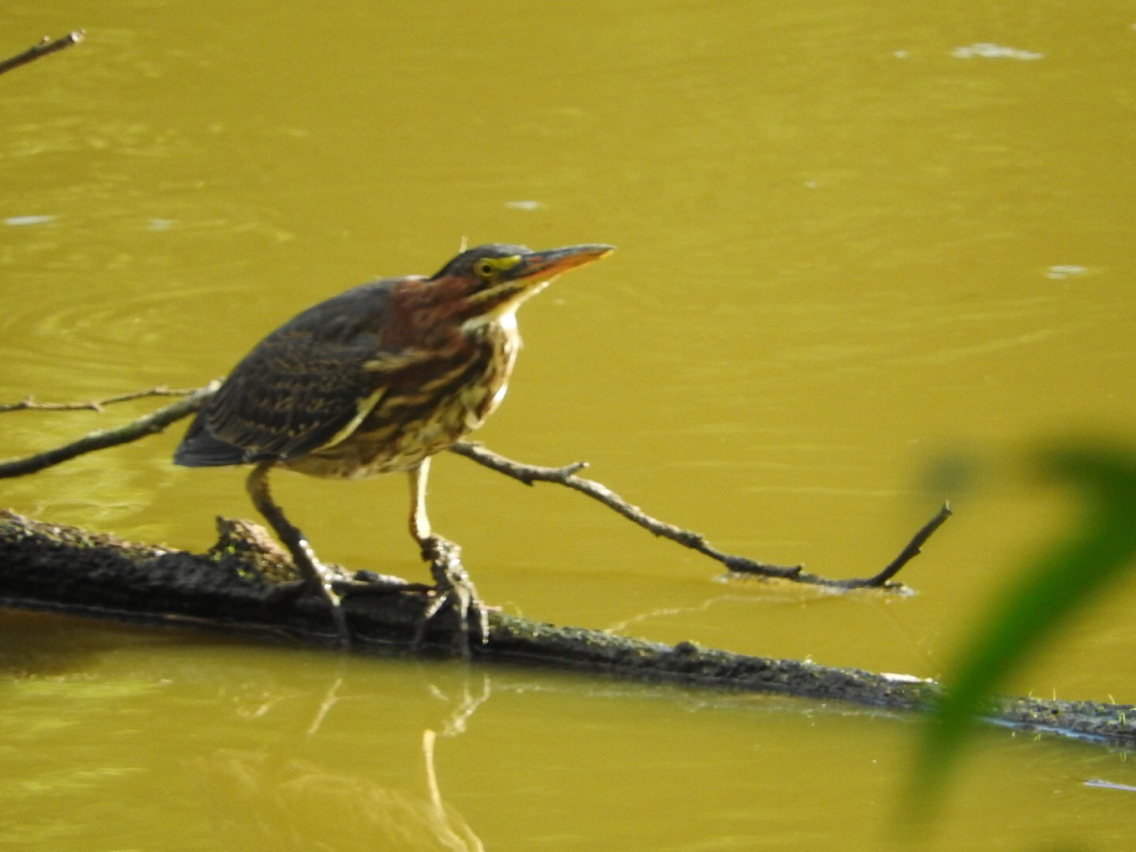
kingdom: Animalia
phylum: Chordata
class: Aves
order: Pelecaniformes
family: Ardeidae
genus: Butorides
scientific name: Butorides virescens
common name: Green heron
